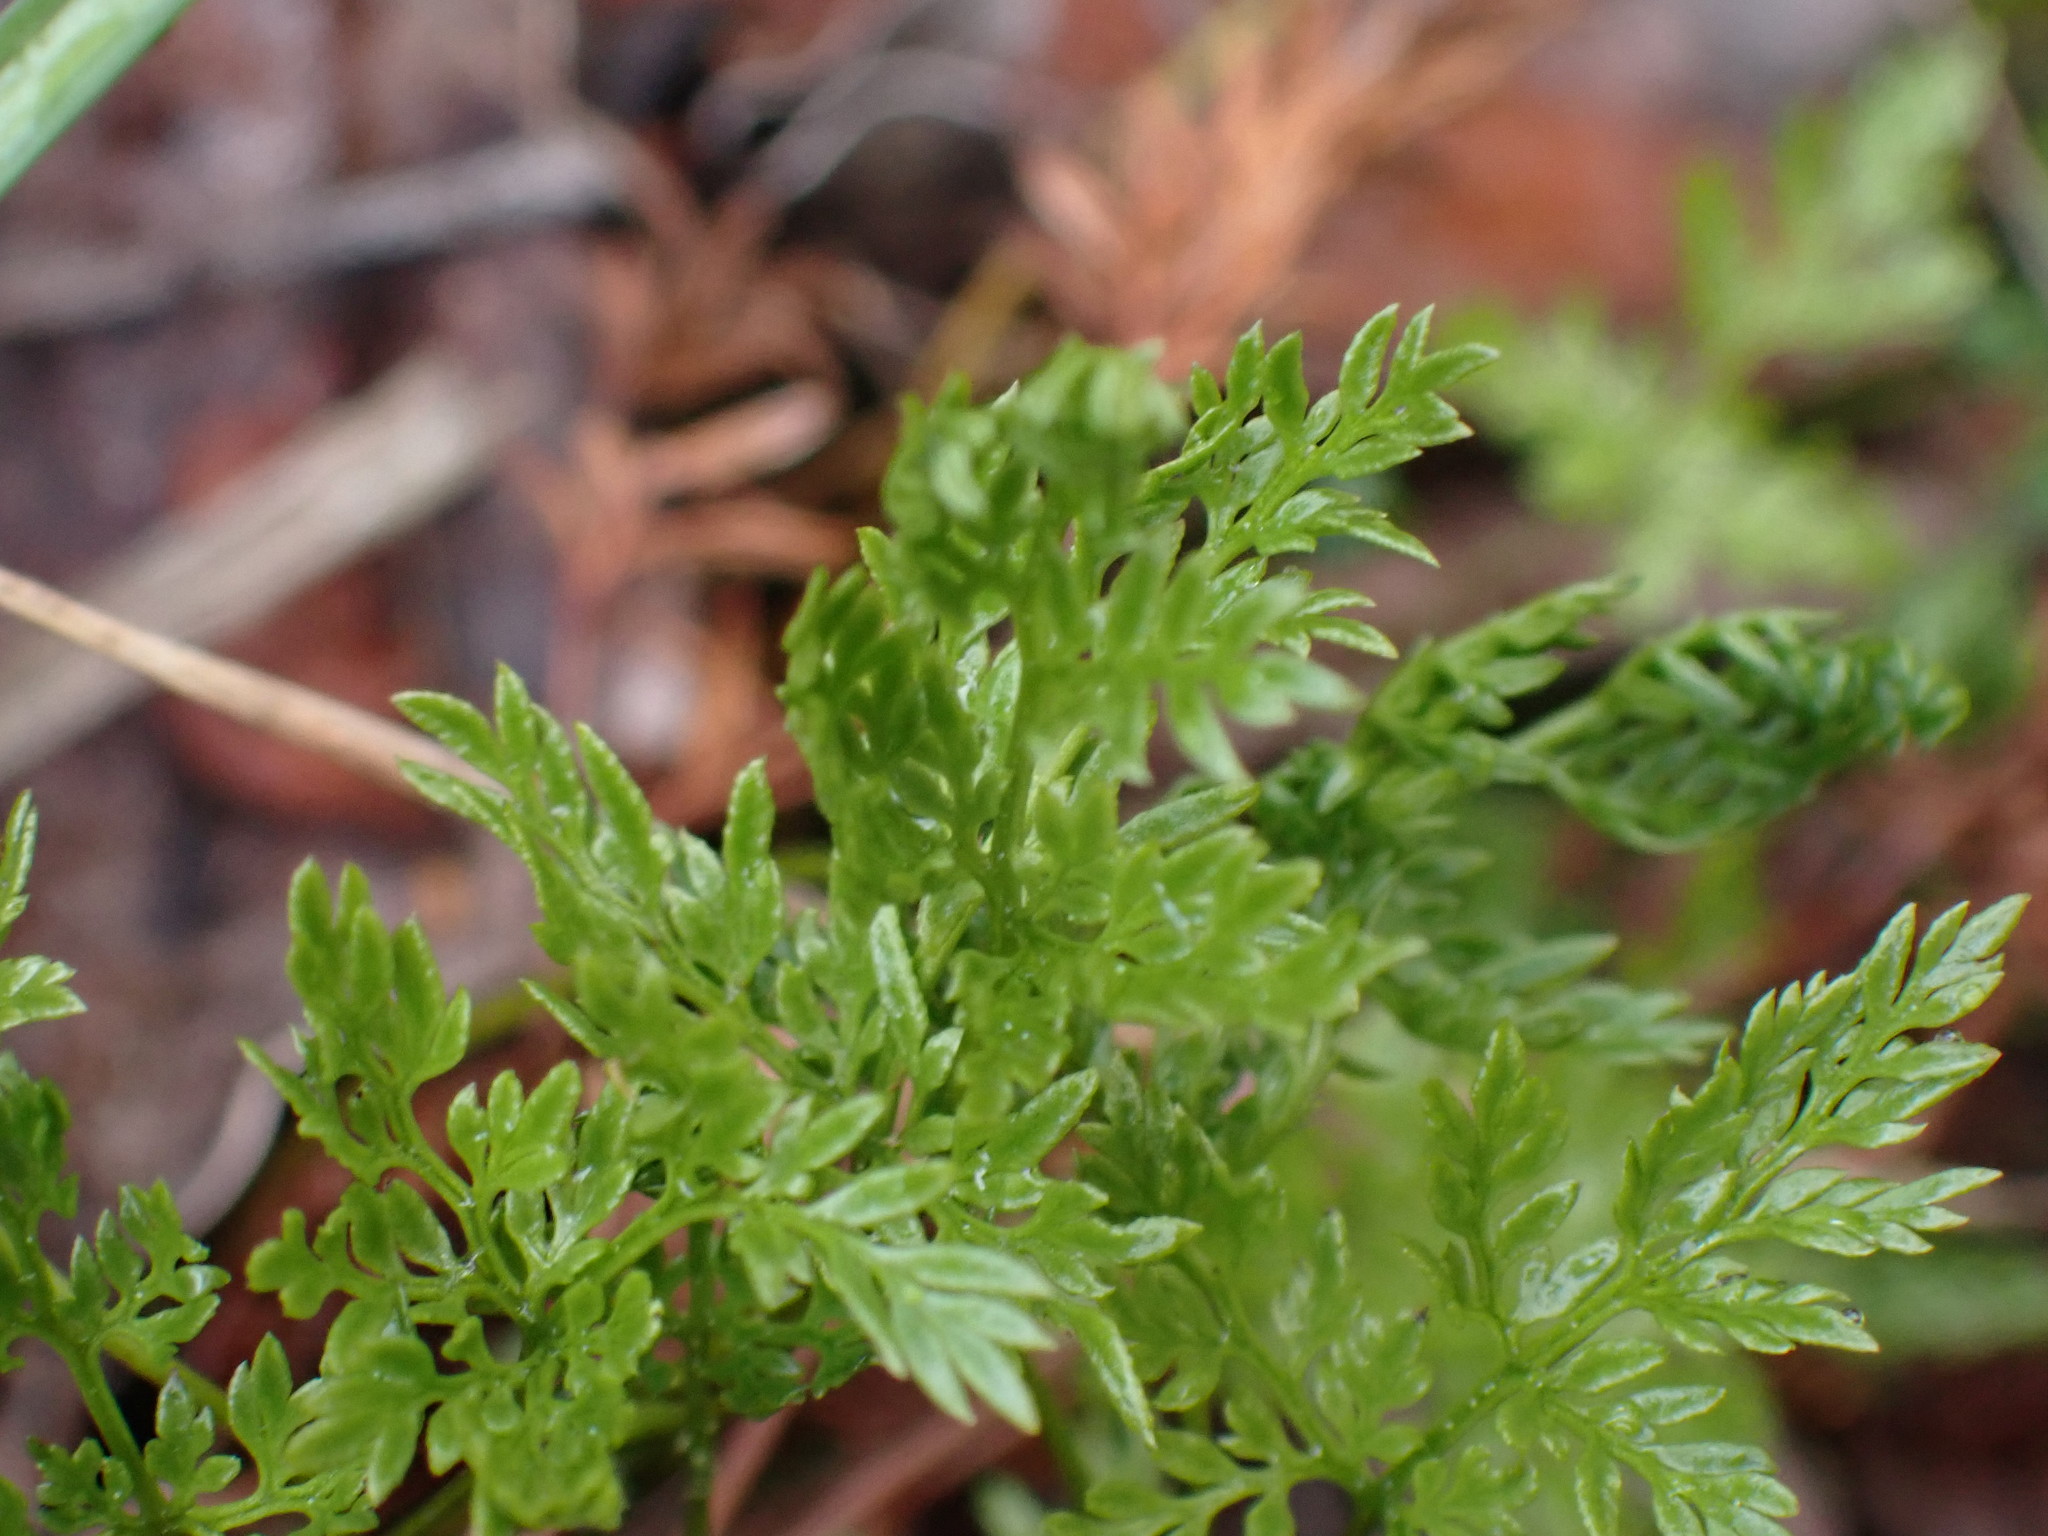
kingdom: Plantae
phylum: Tracheophyta
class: Polypodiopsida
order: Polypodiales
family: Pteridaceae
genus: Aspidotis
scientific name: Aspidotis densa
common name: Indian's dream
